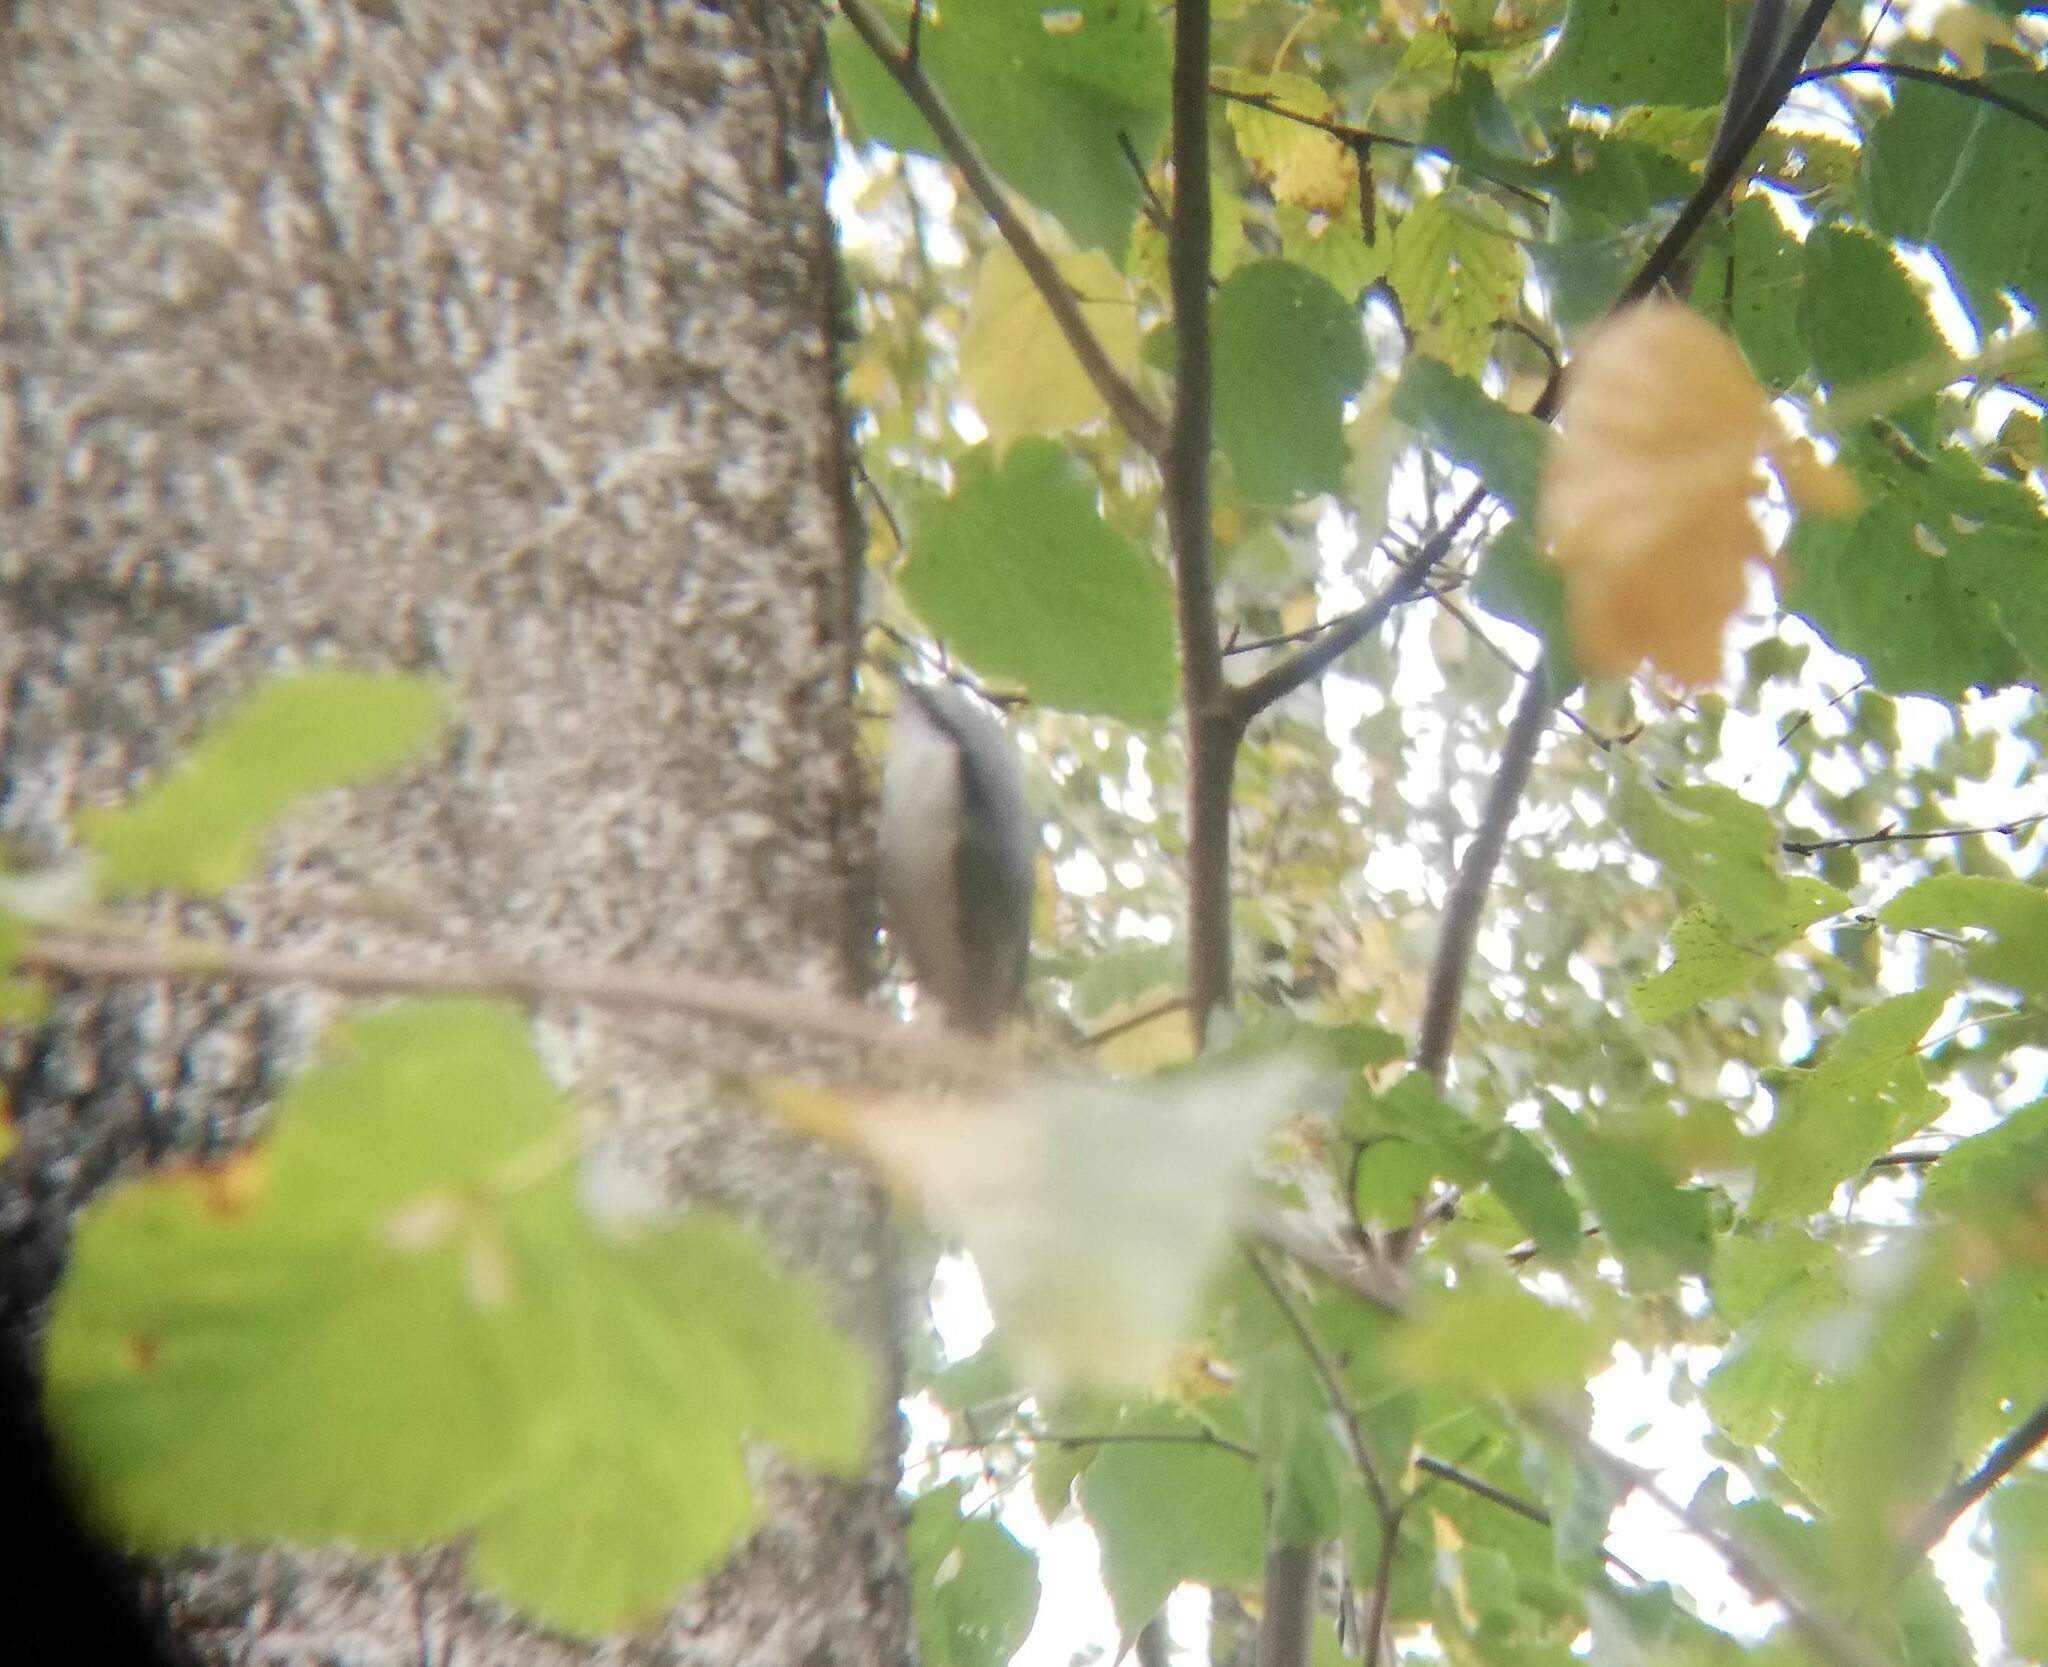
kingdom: Animalia
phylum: Chordata
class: Aves
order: Passeriformes
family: Sittidae
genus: Sitta
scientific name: Sitta europaea
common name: Eurasian nuthatch
